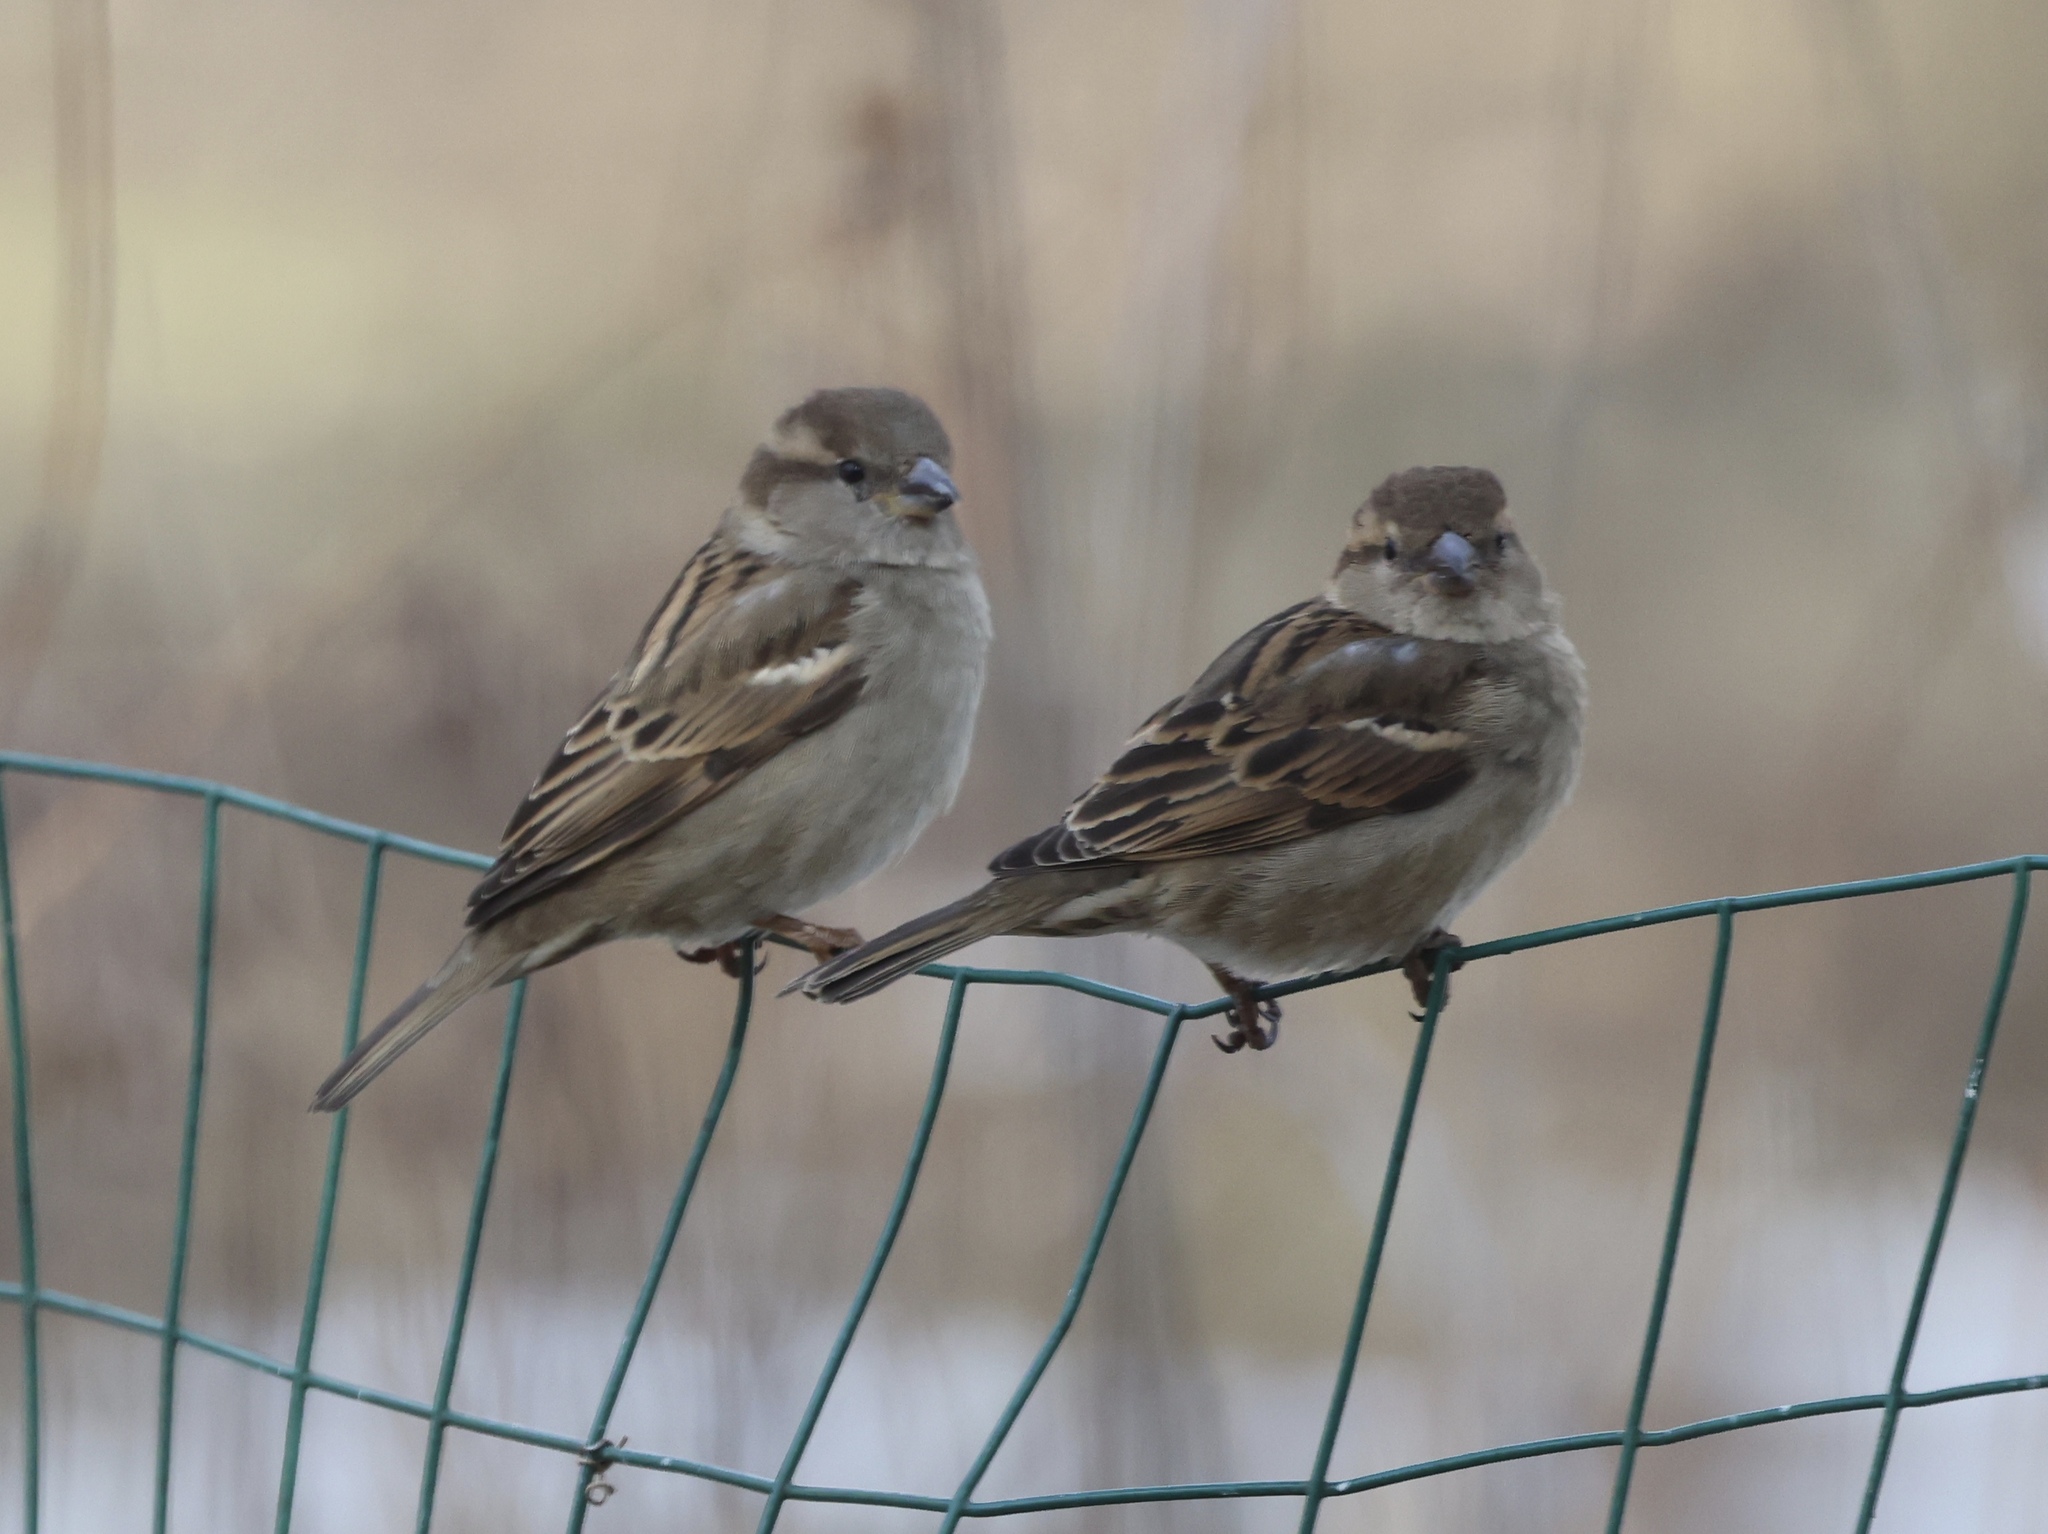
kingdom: Animalia
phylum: Chordata
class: Aves
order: Passeriformes
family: Passeridae
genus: Passer
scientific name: Passer domesticus
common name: House sparrow
